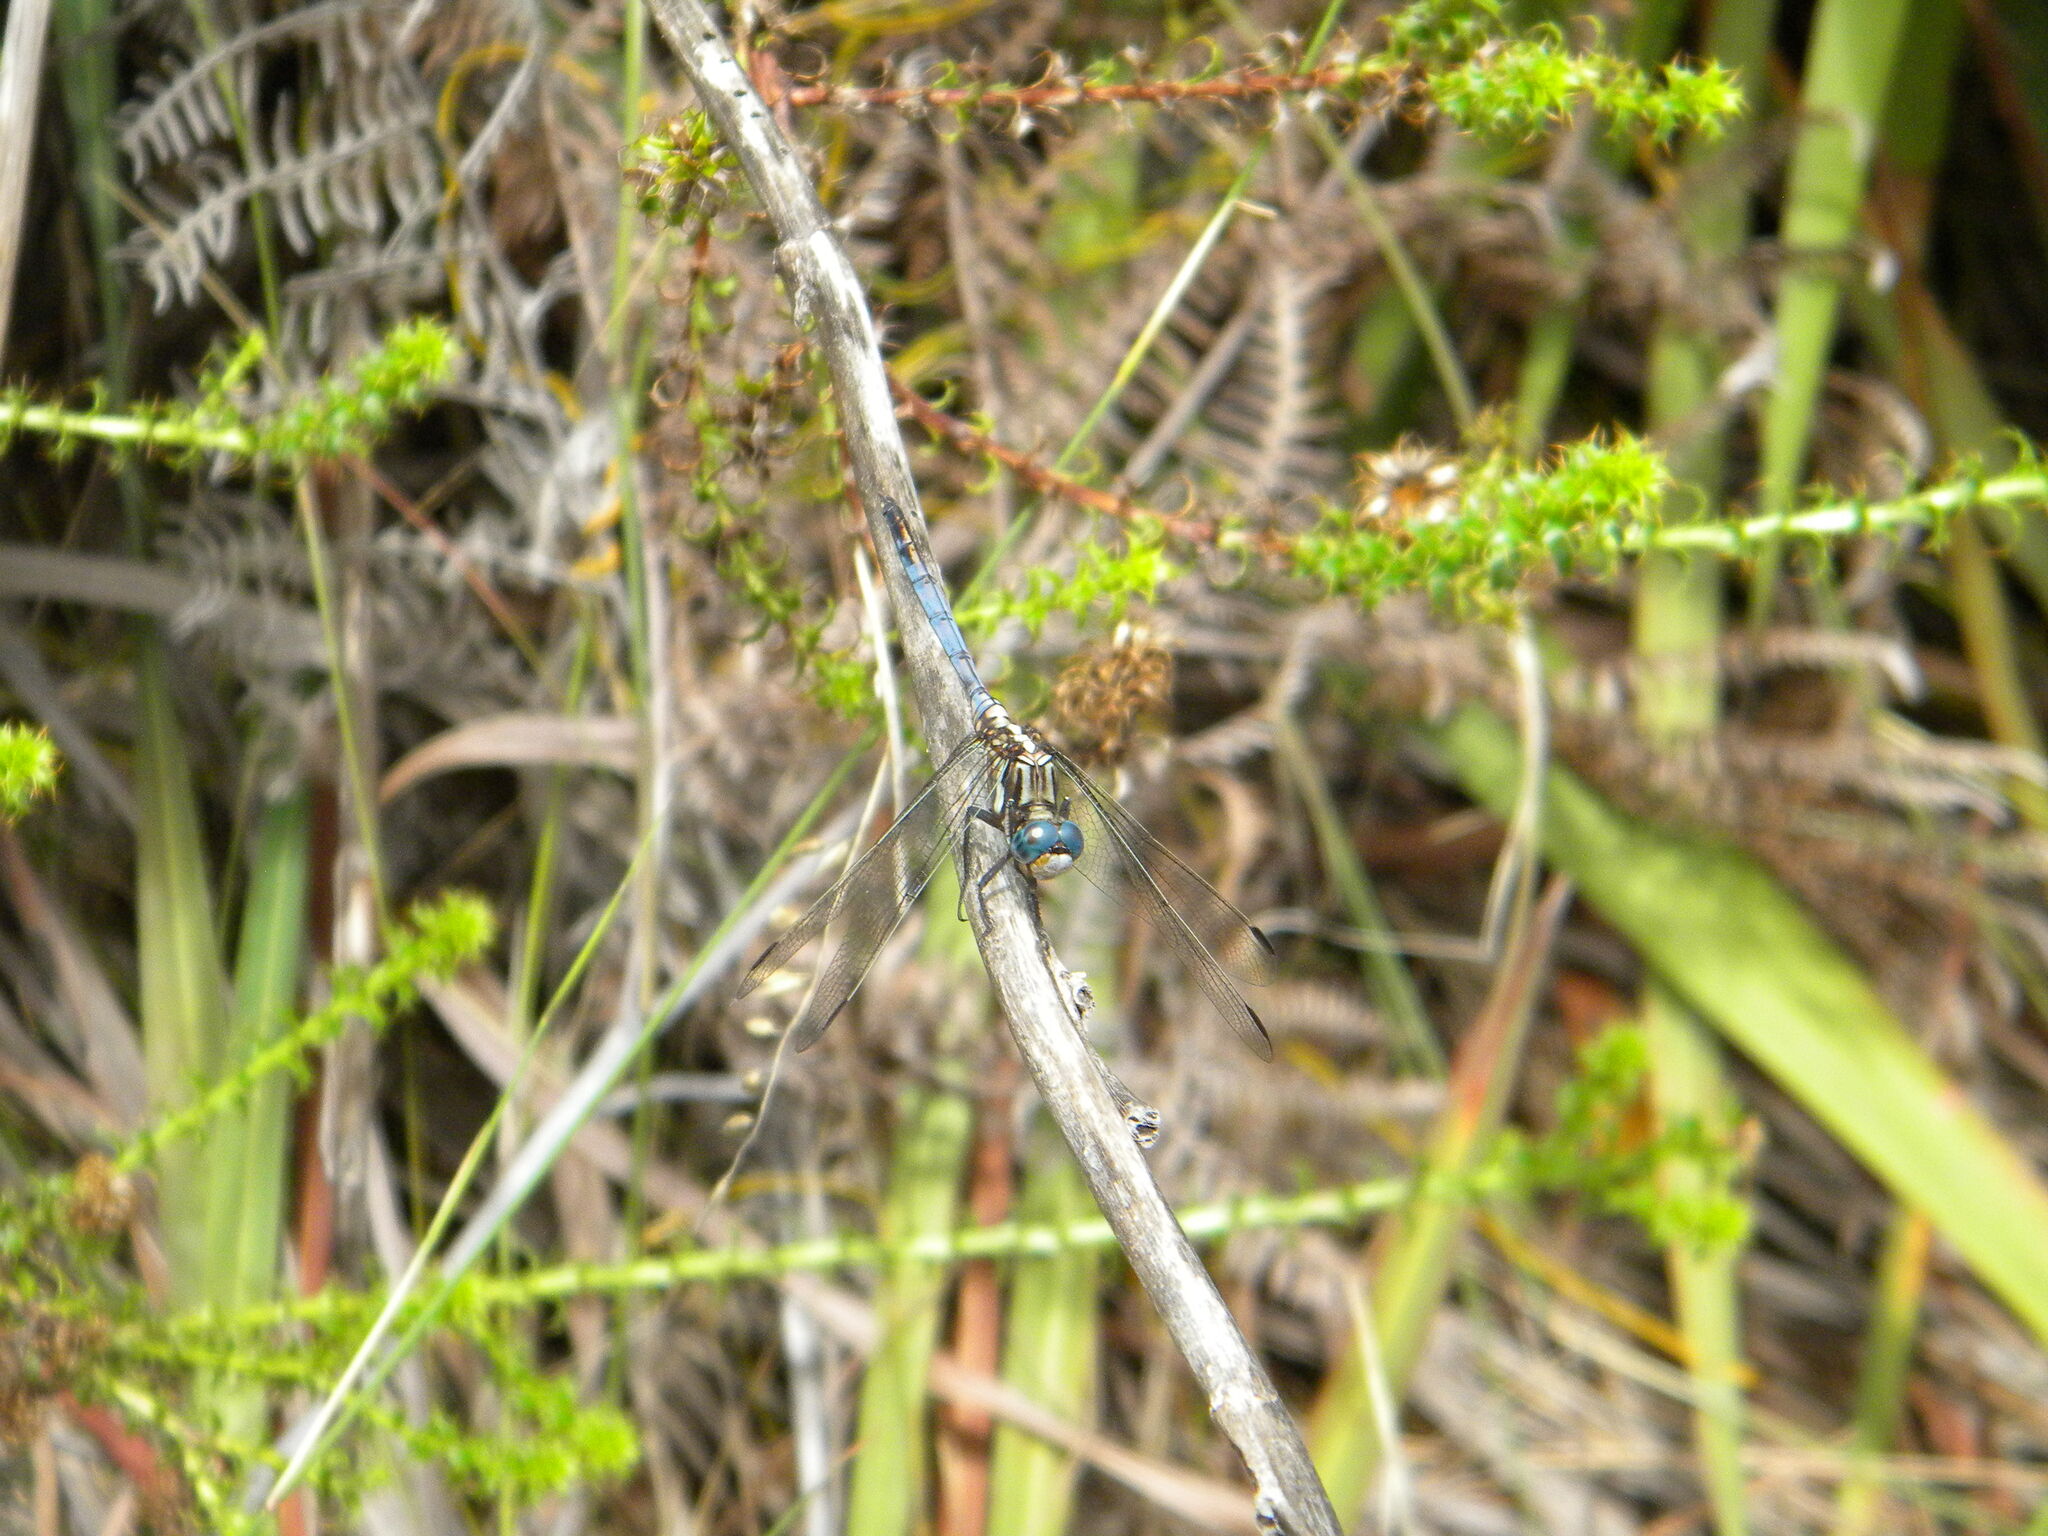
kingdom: Animalia
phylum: Arthropoda
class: Insecta
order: Odonata
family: Libellulidae
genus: Orthetrum
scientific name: Orthetrum julia
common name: Julia skimmer
